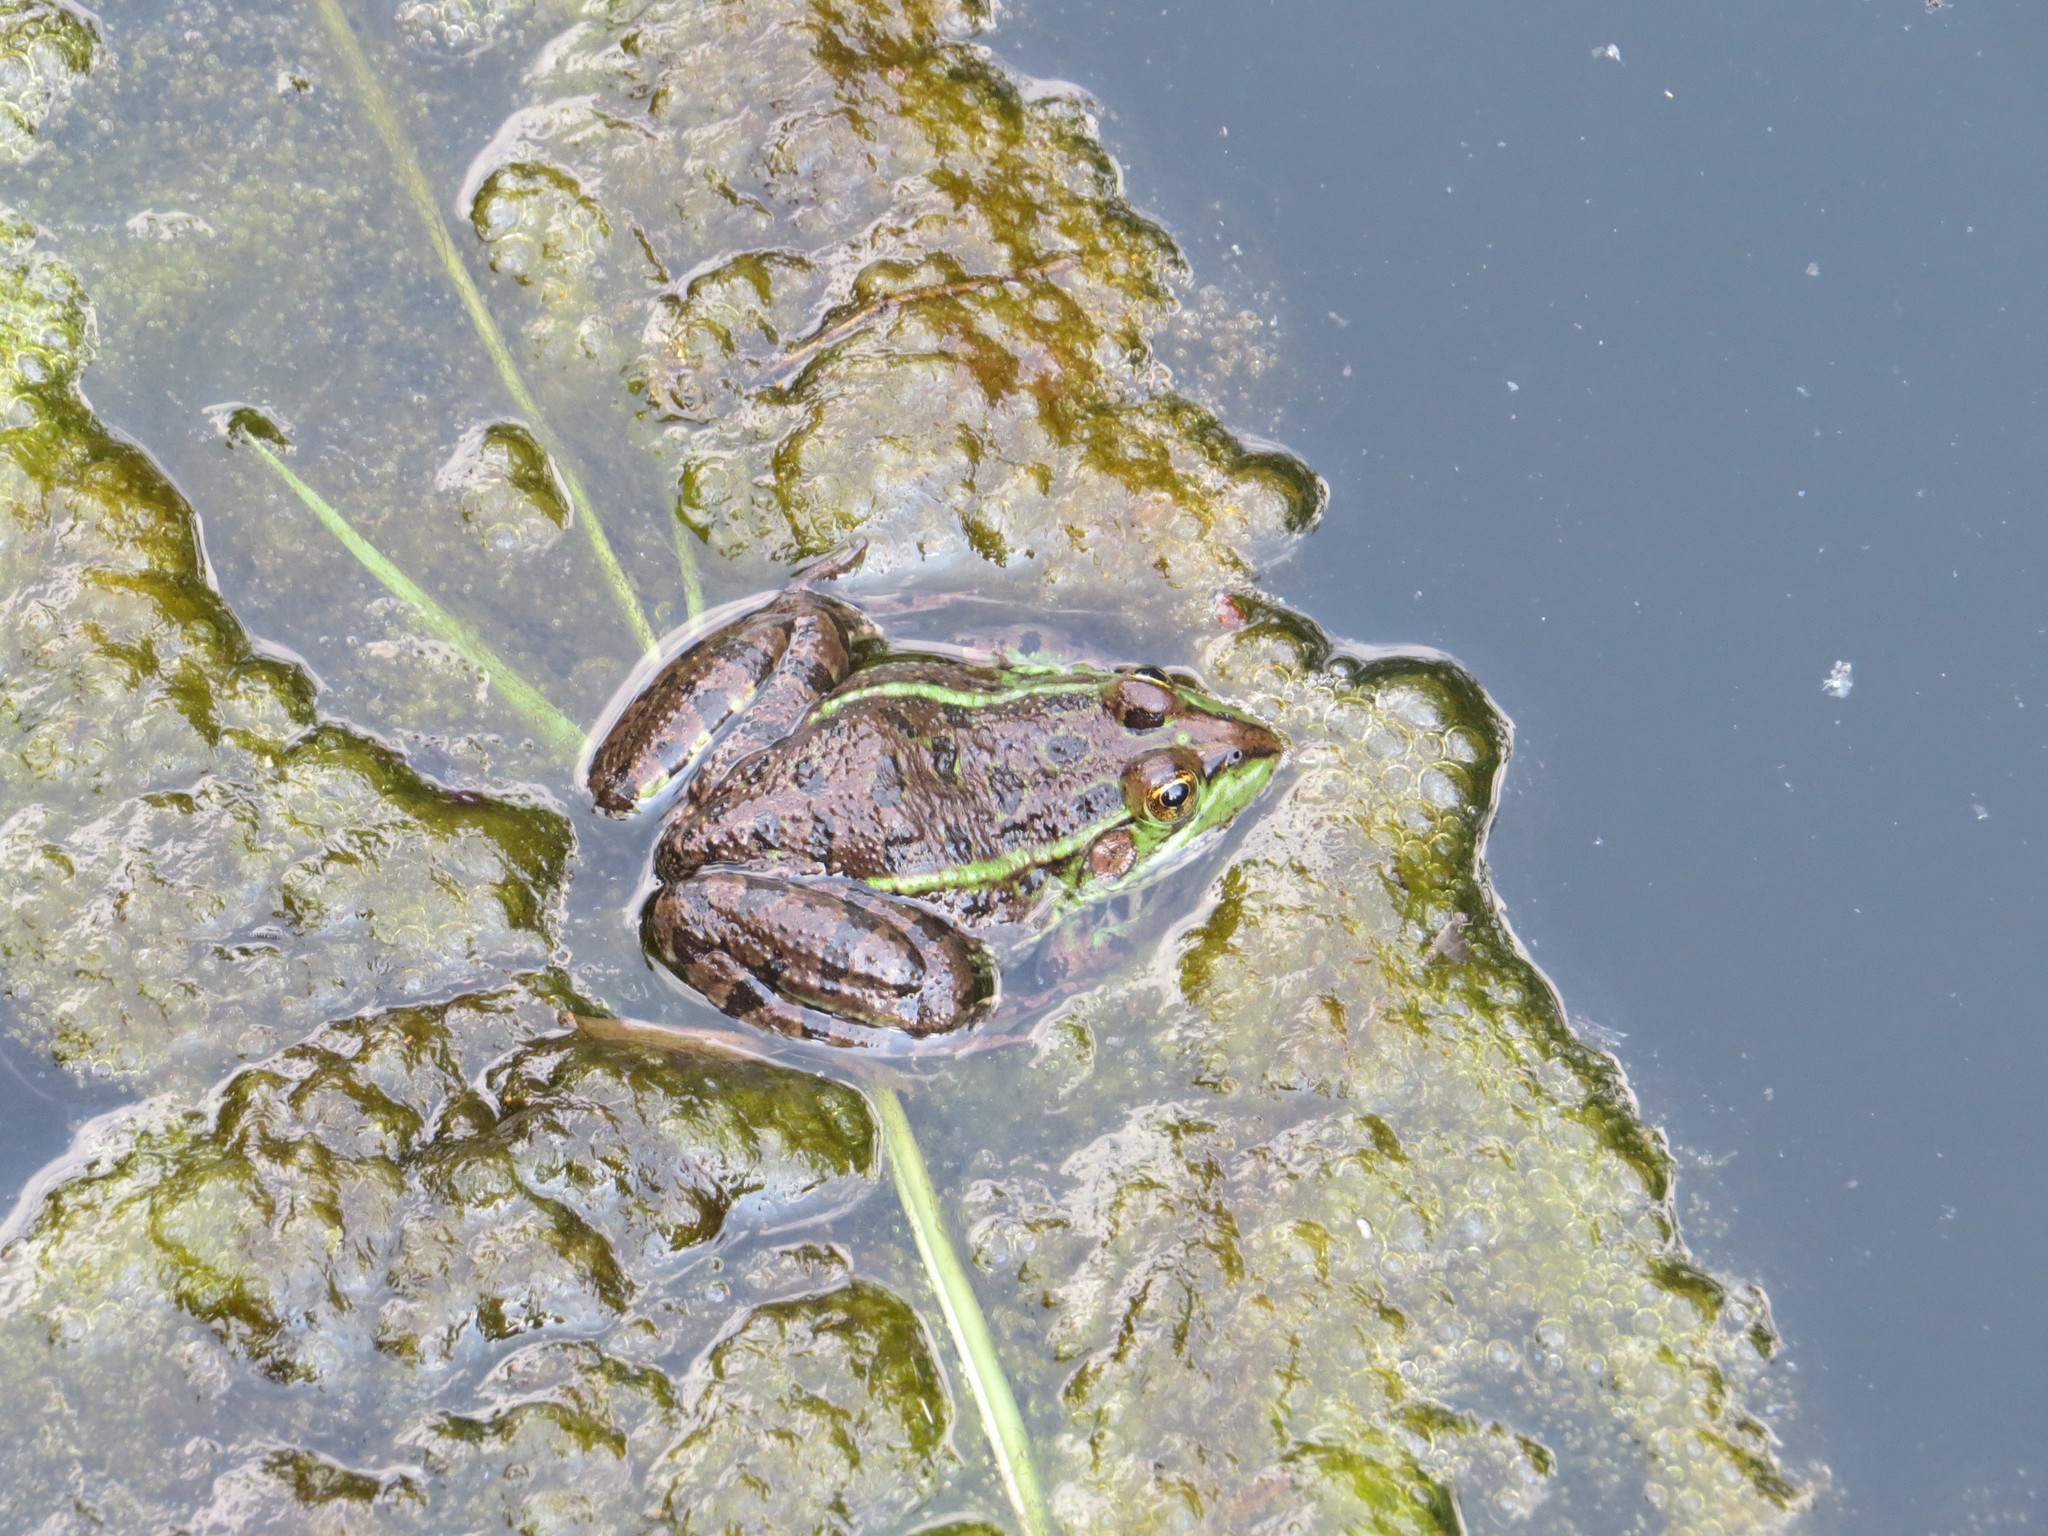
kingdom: Animalia
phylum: Chordata
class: Amphibia
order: Anura
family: Ranidae
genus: Lithobates
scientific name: Lithobates montezumae
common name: Montezuma leopard frog
